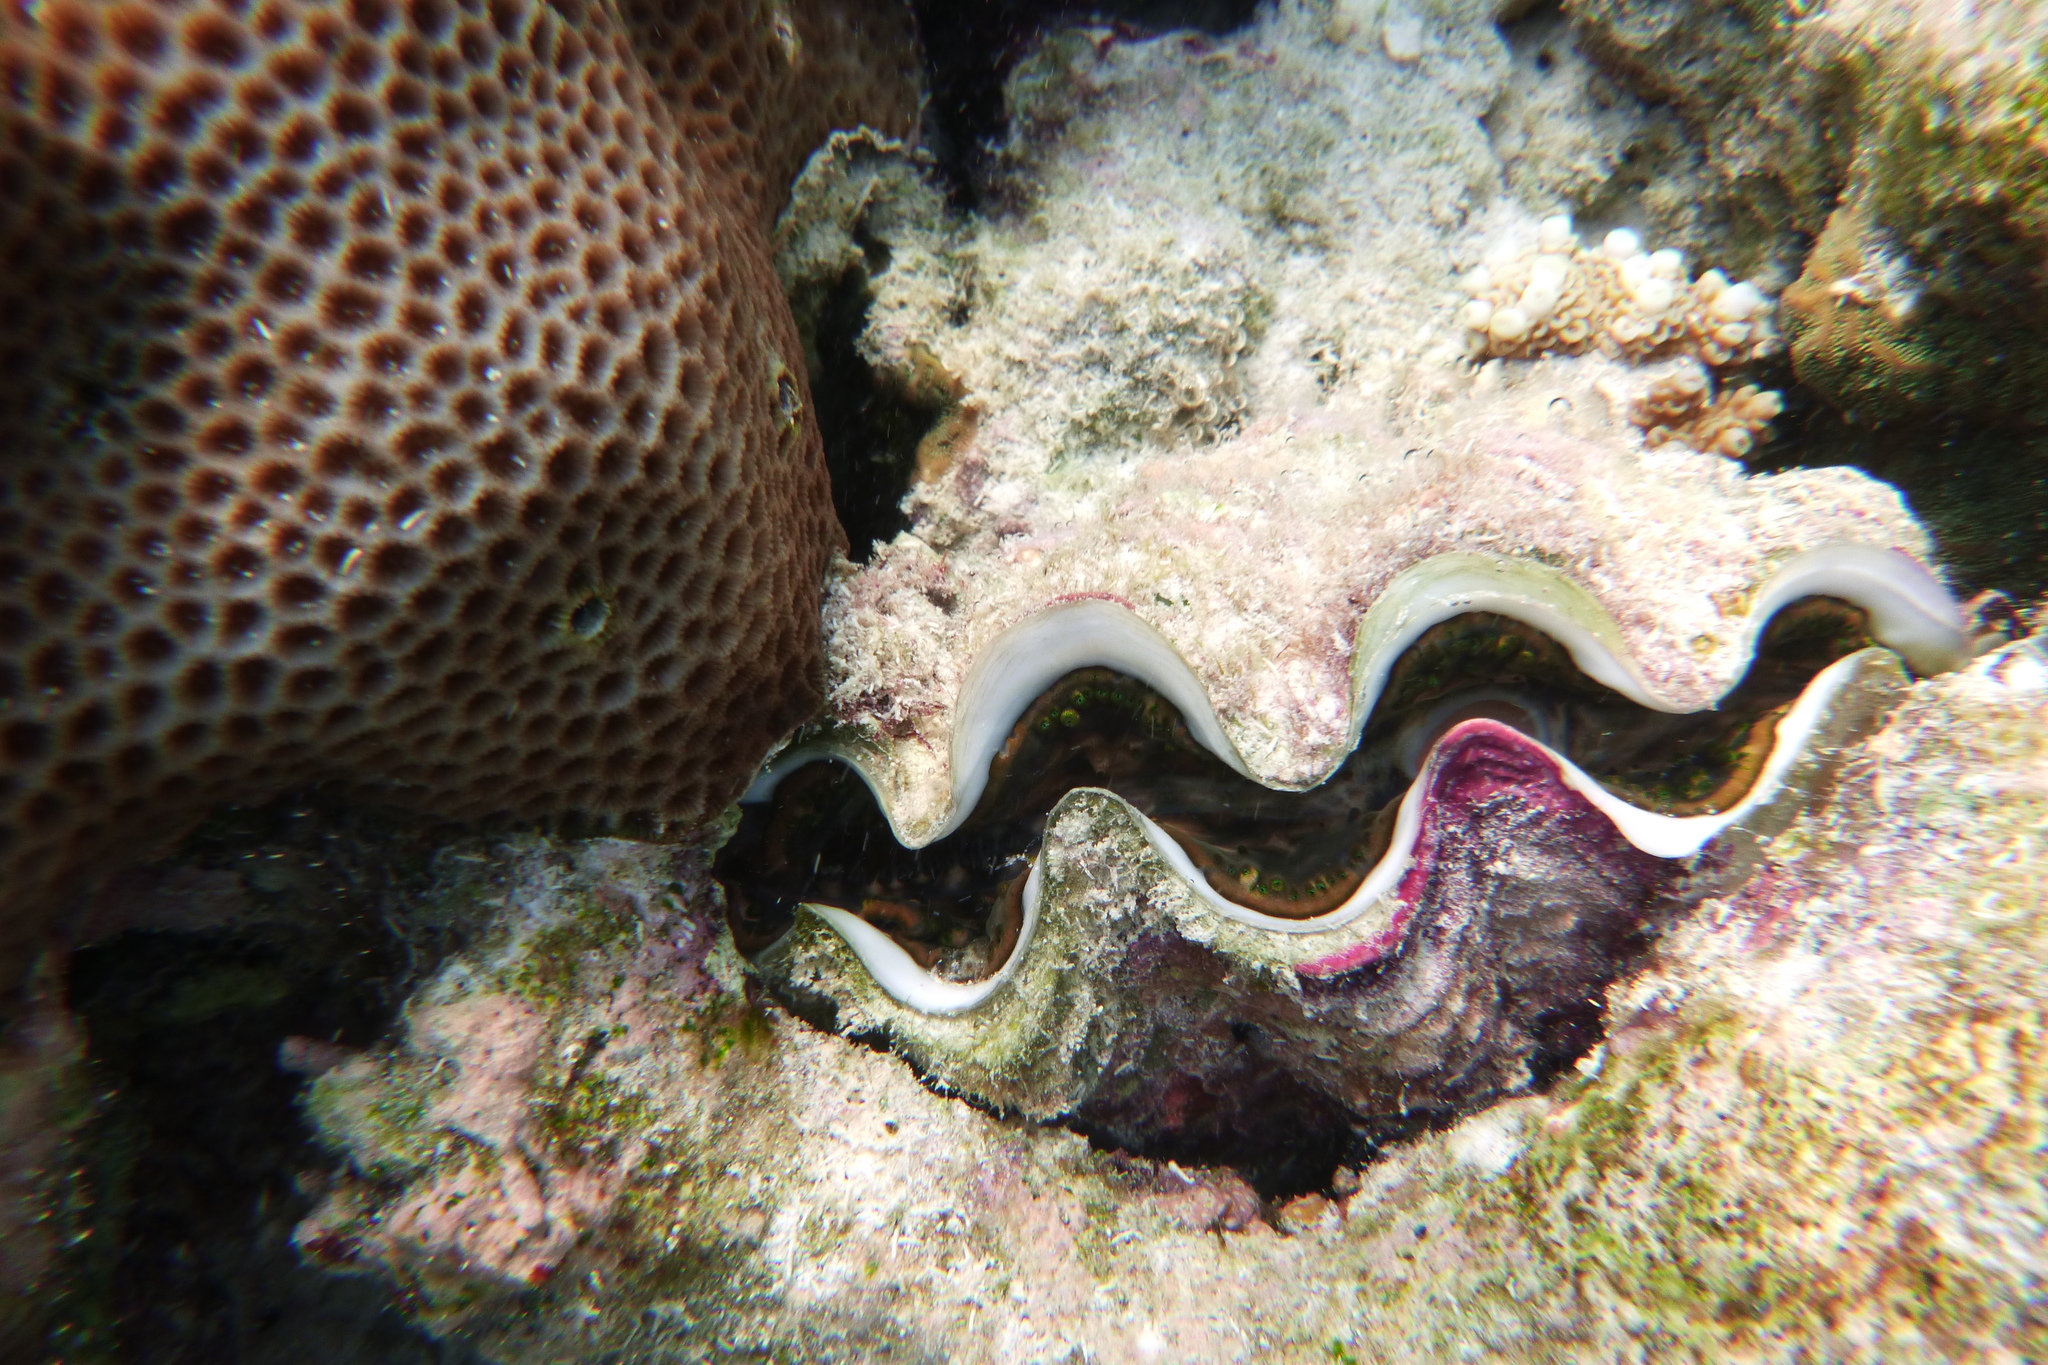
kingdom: Animalia
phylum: Mollusca
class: Bivalvia
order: Cardiida
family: Cardiidae
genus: Tridacna
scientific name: Tridacna maxima
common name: Small giant clam
